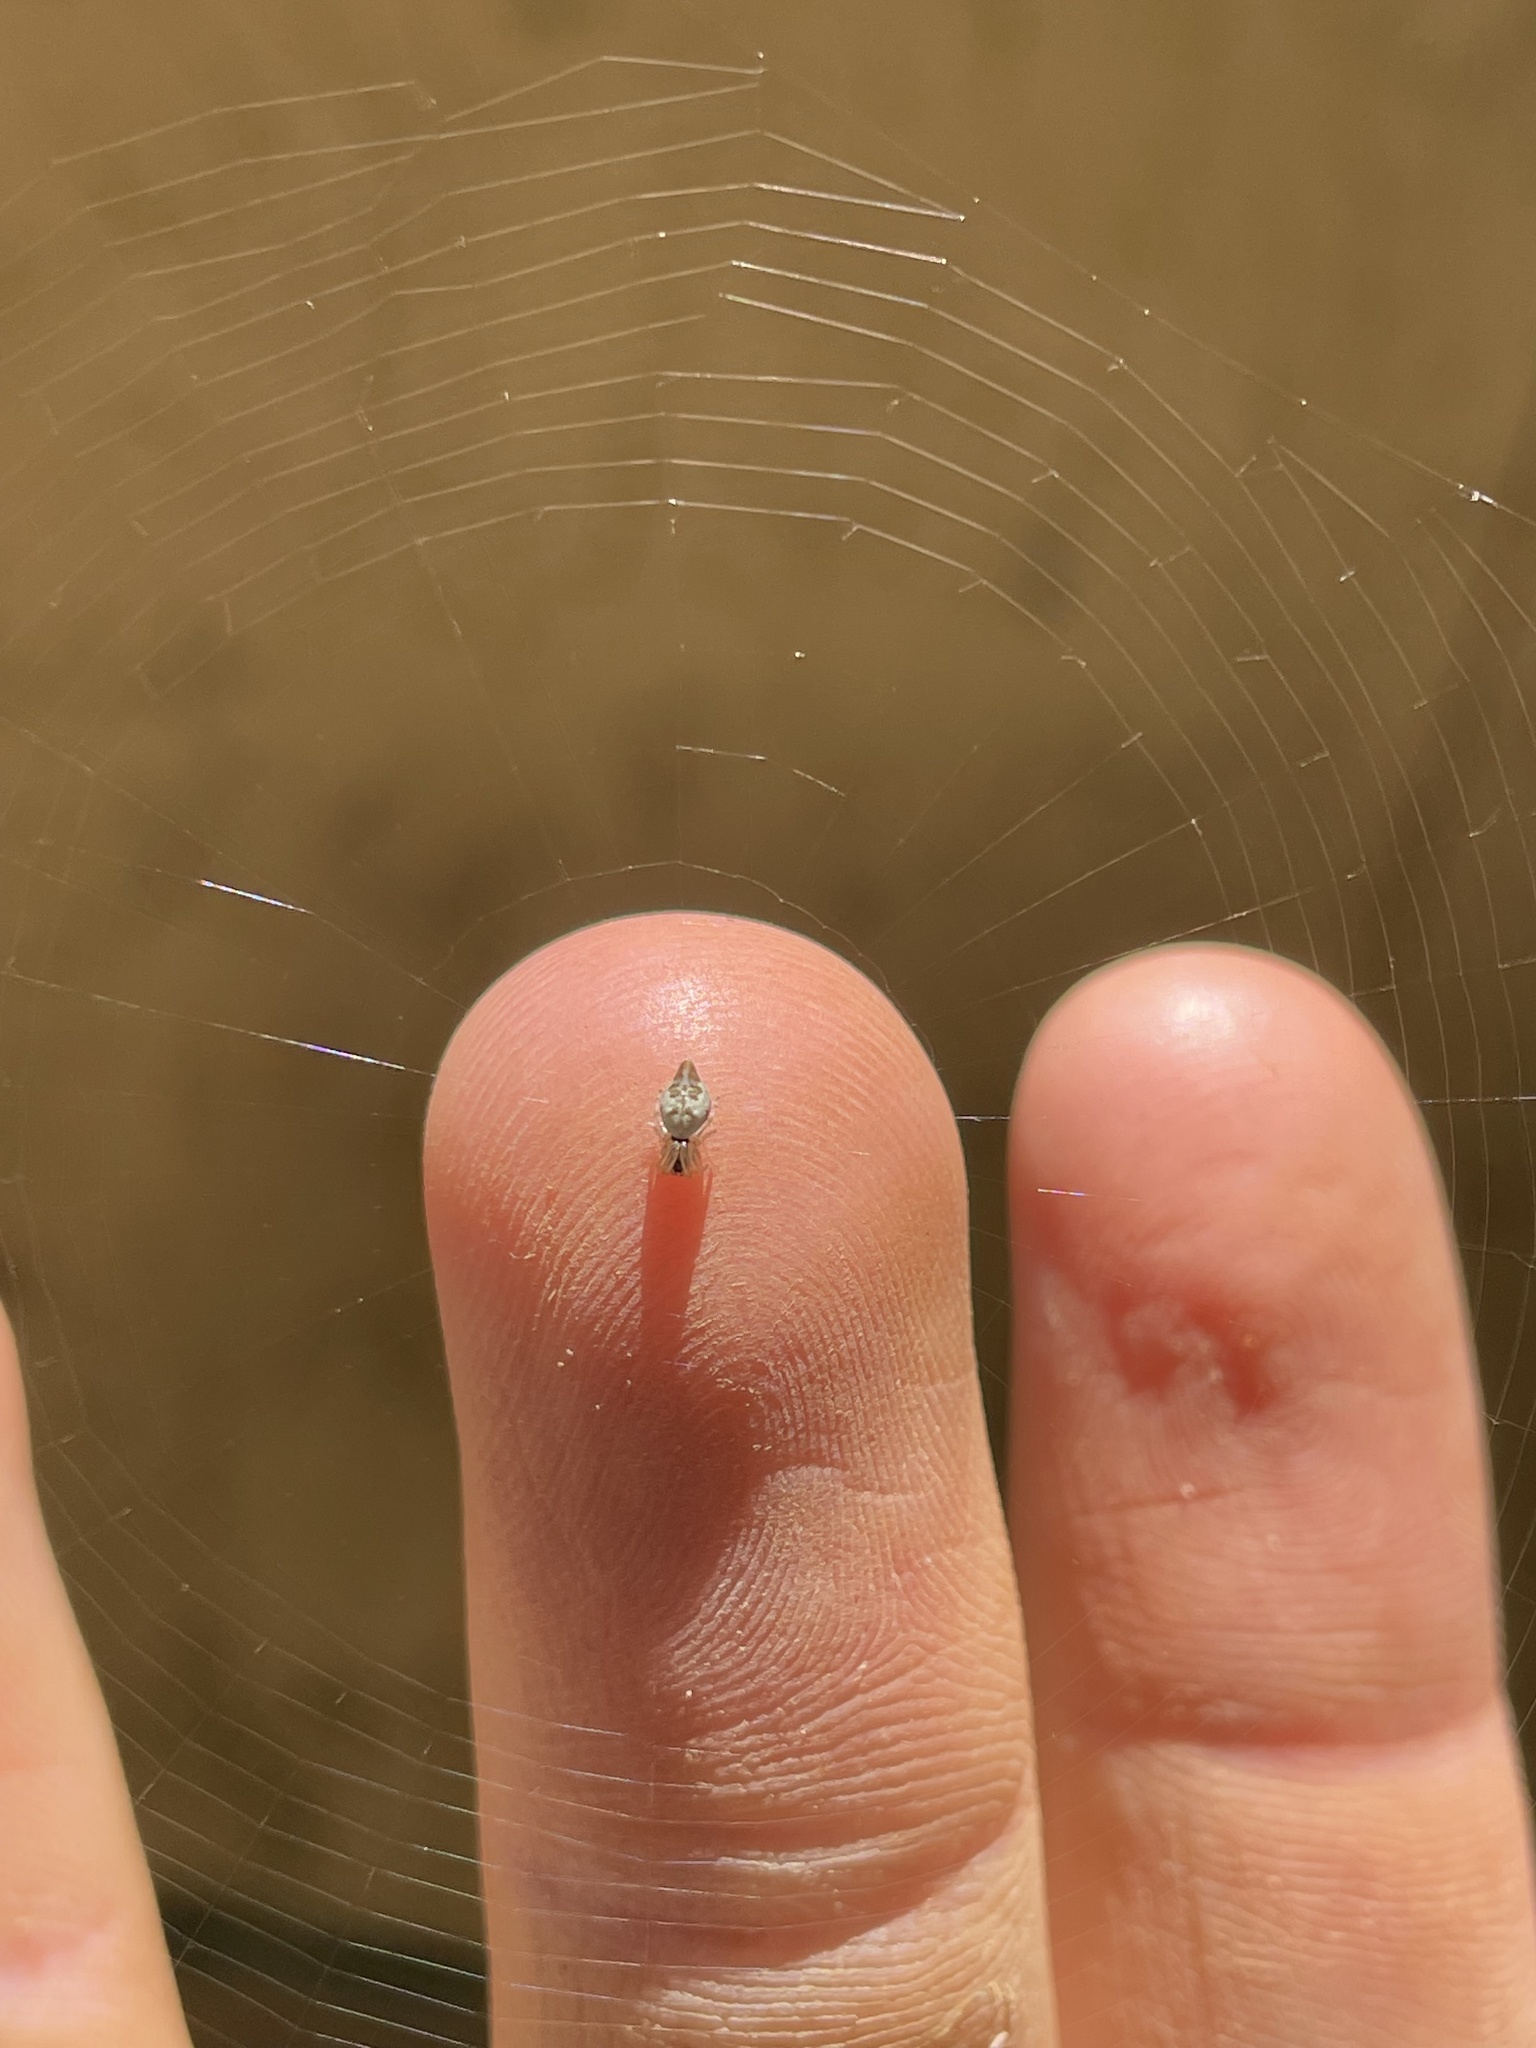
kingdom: Animalia
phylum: Arthropoda
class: Arachnida
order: Araneae
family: Araneidae
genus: Cyclosa
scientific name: Cyclosa turbinata
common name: Orb weavers
